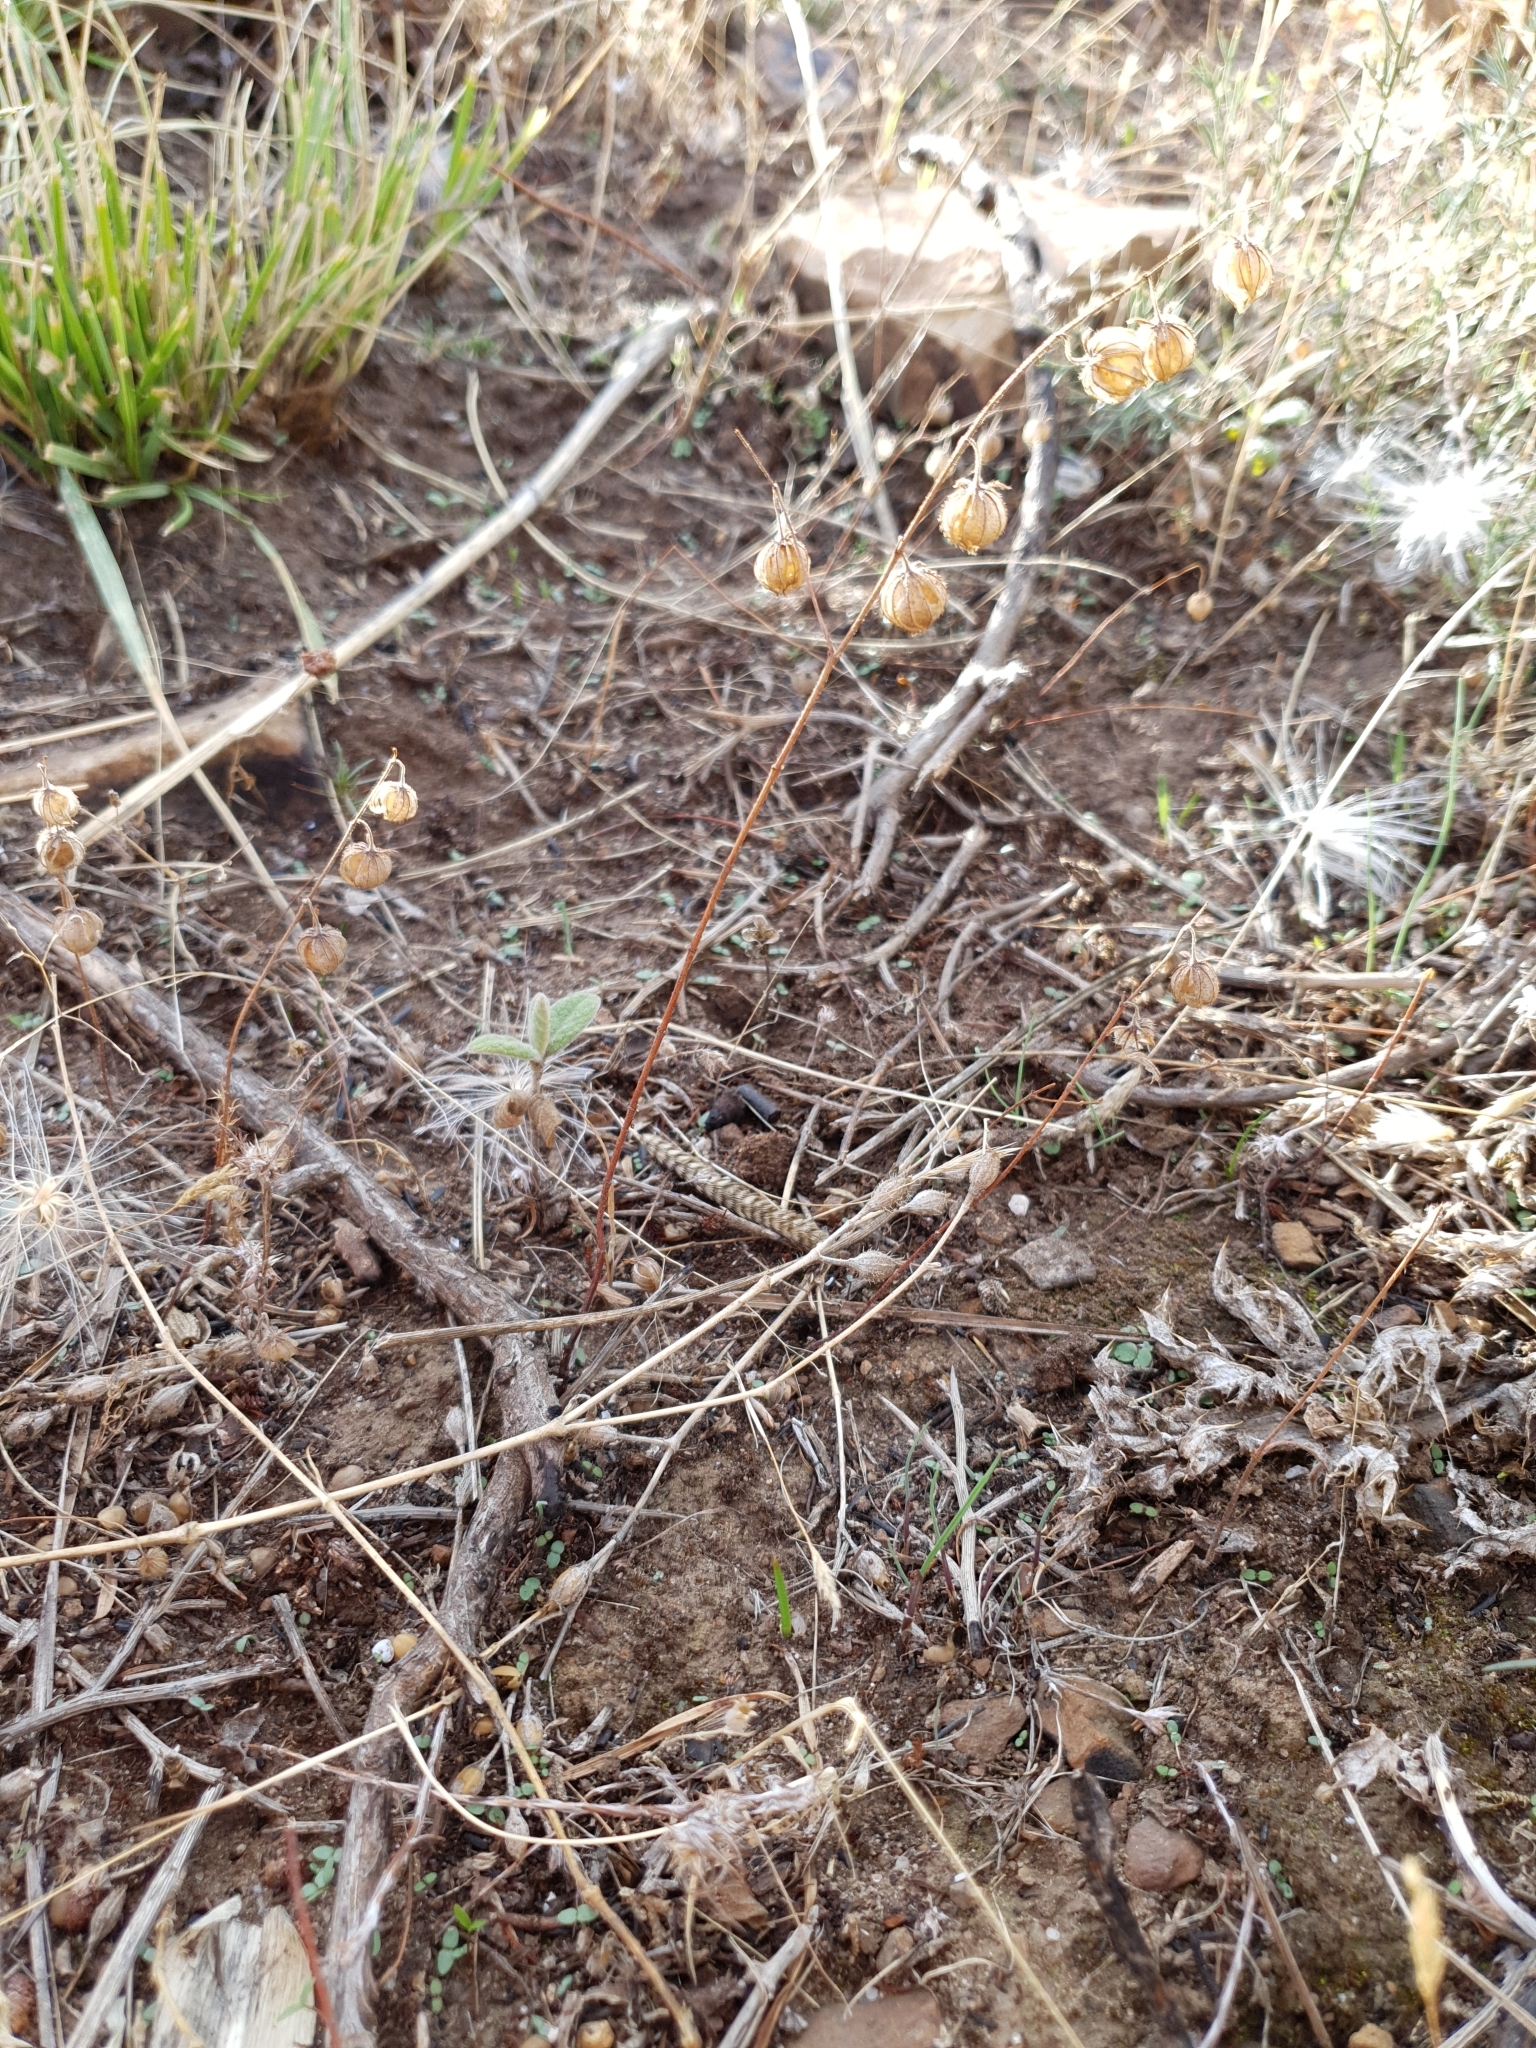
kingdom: Plantae
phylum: Tracheophyta
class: Magnoliopsida
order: Malvales
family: Cistaceae
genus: Helianthemum
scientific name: Helianthemum aegyptiacum
